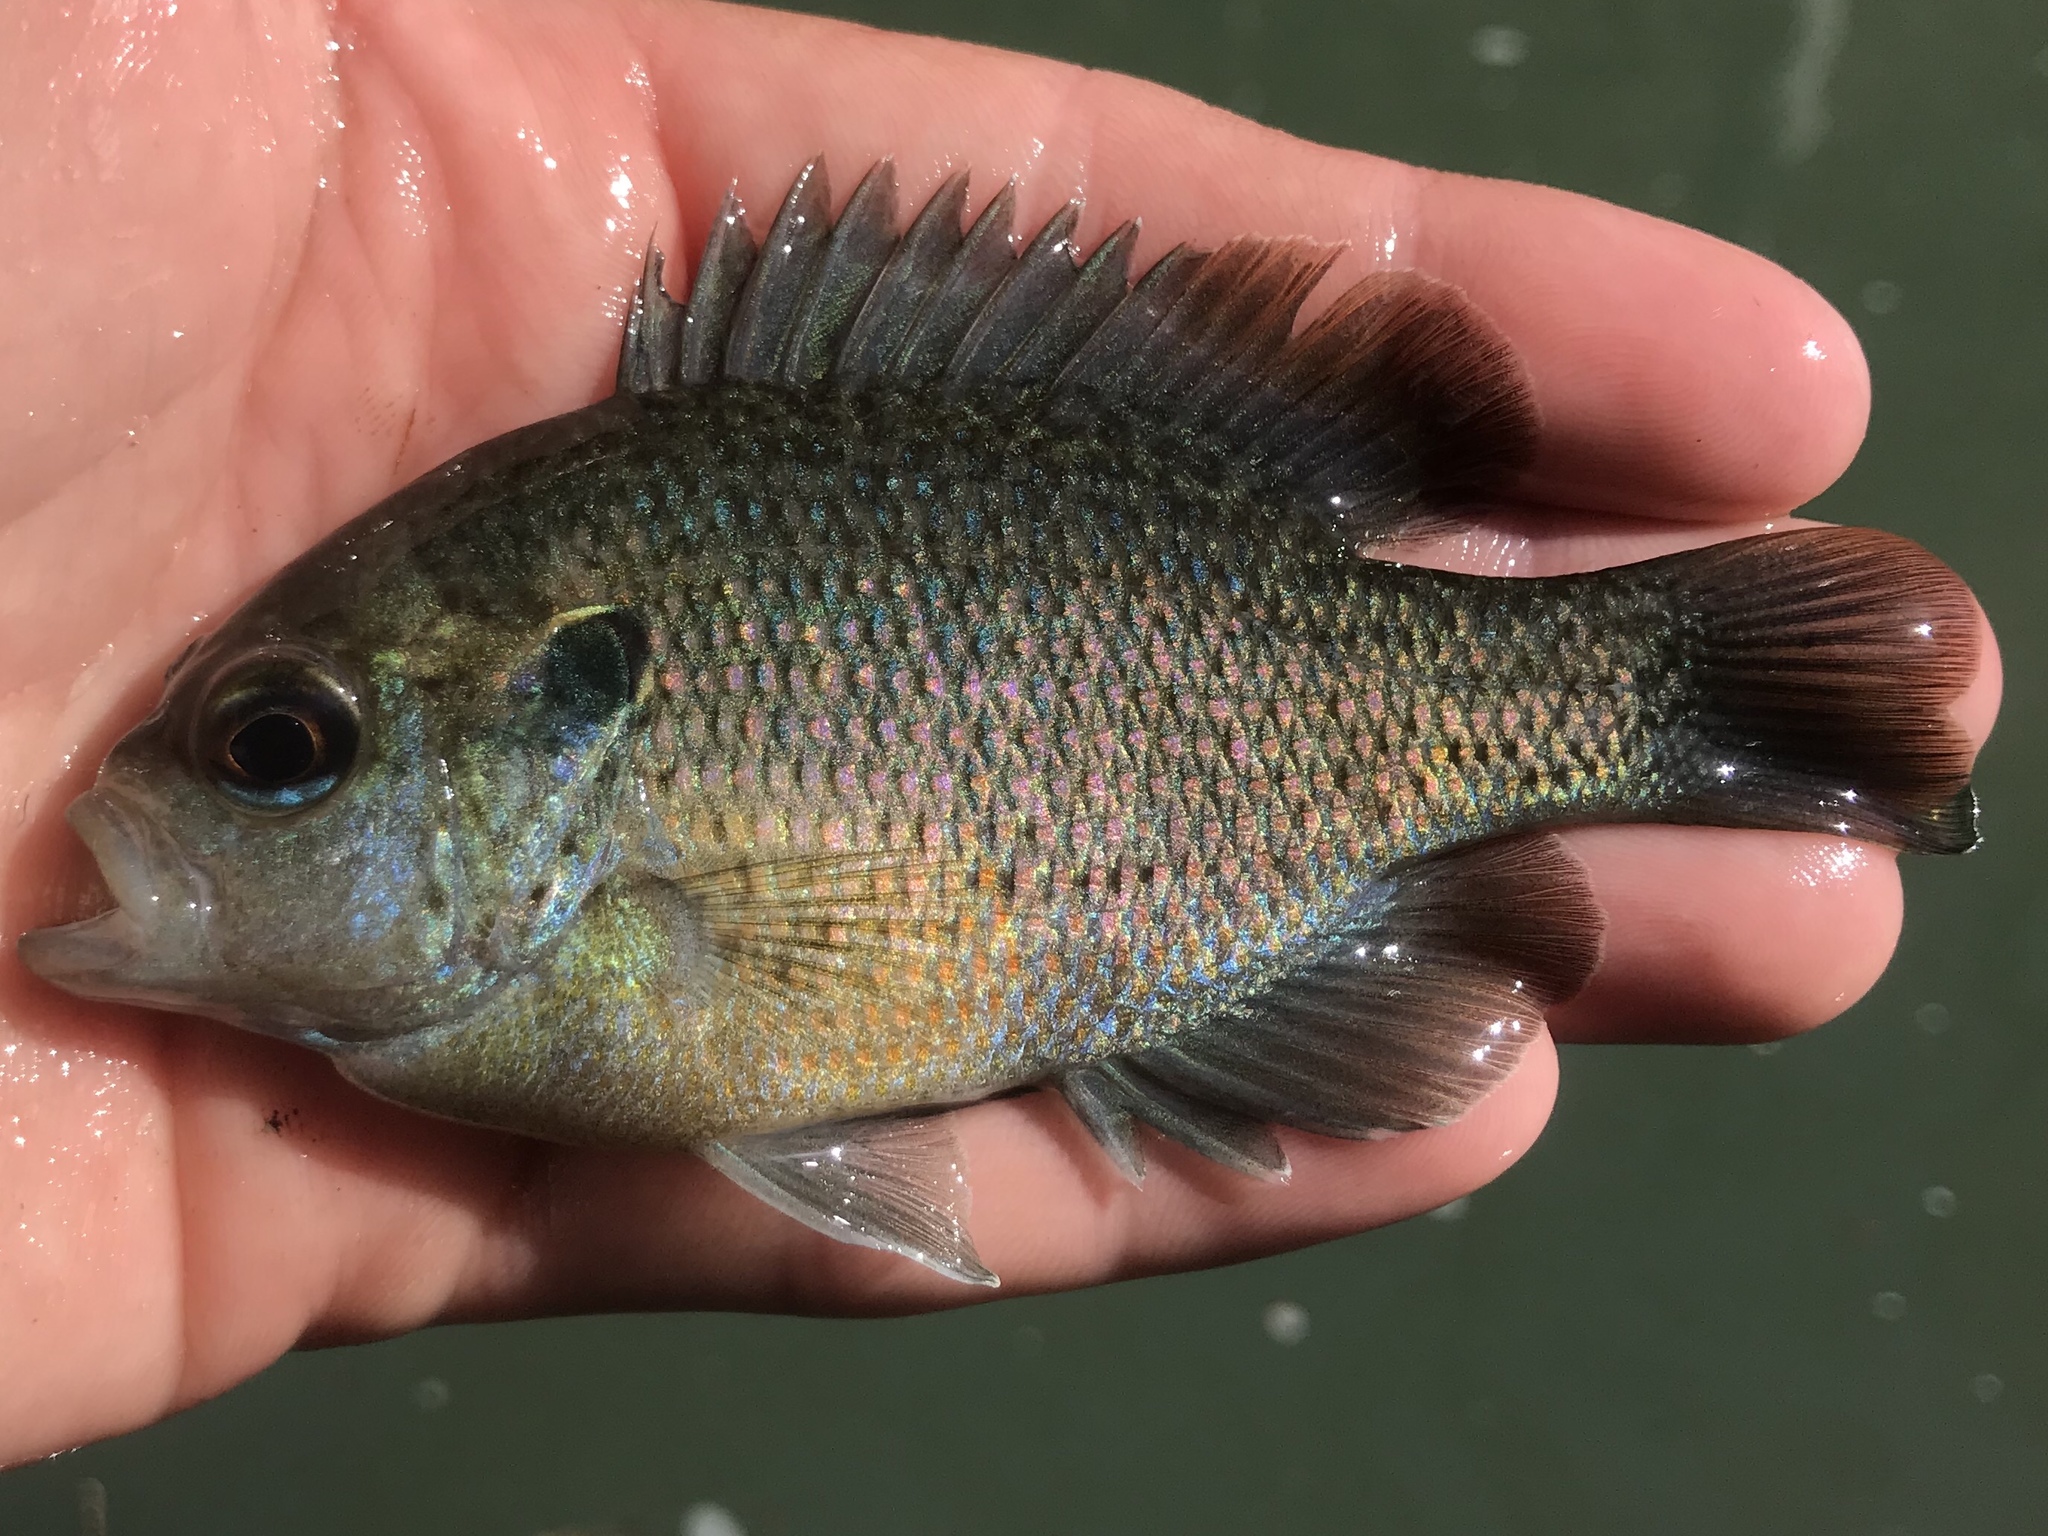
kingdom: Animalia
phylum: Chordata
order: Perciformes
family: Centrarchidae
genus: Lepomis
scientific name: Lepomis miniatus
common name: Redspotted sunfish
